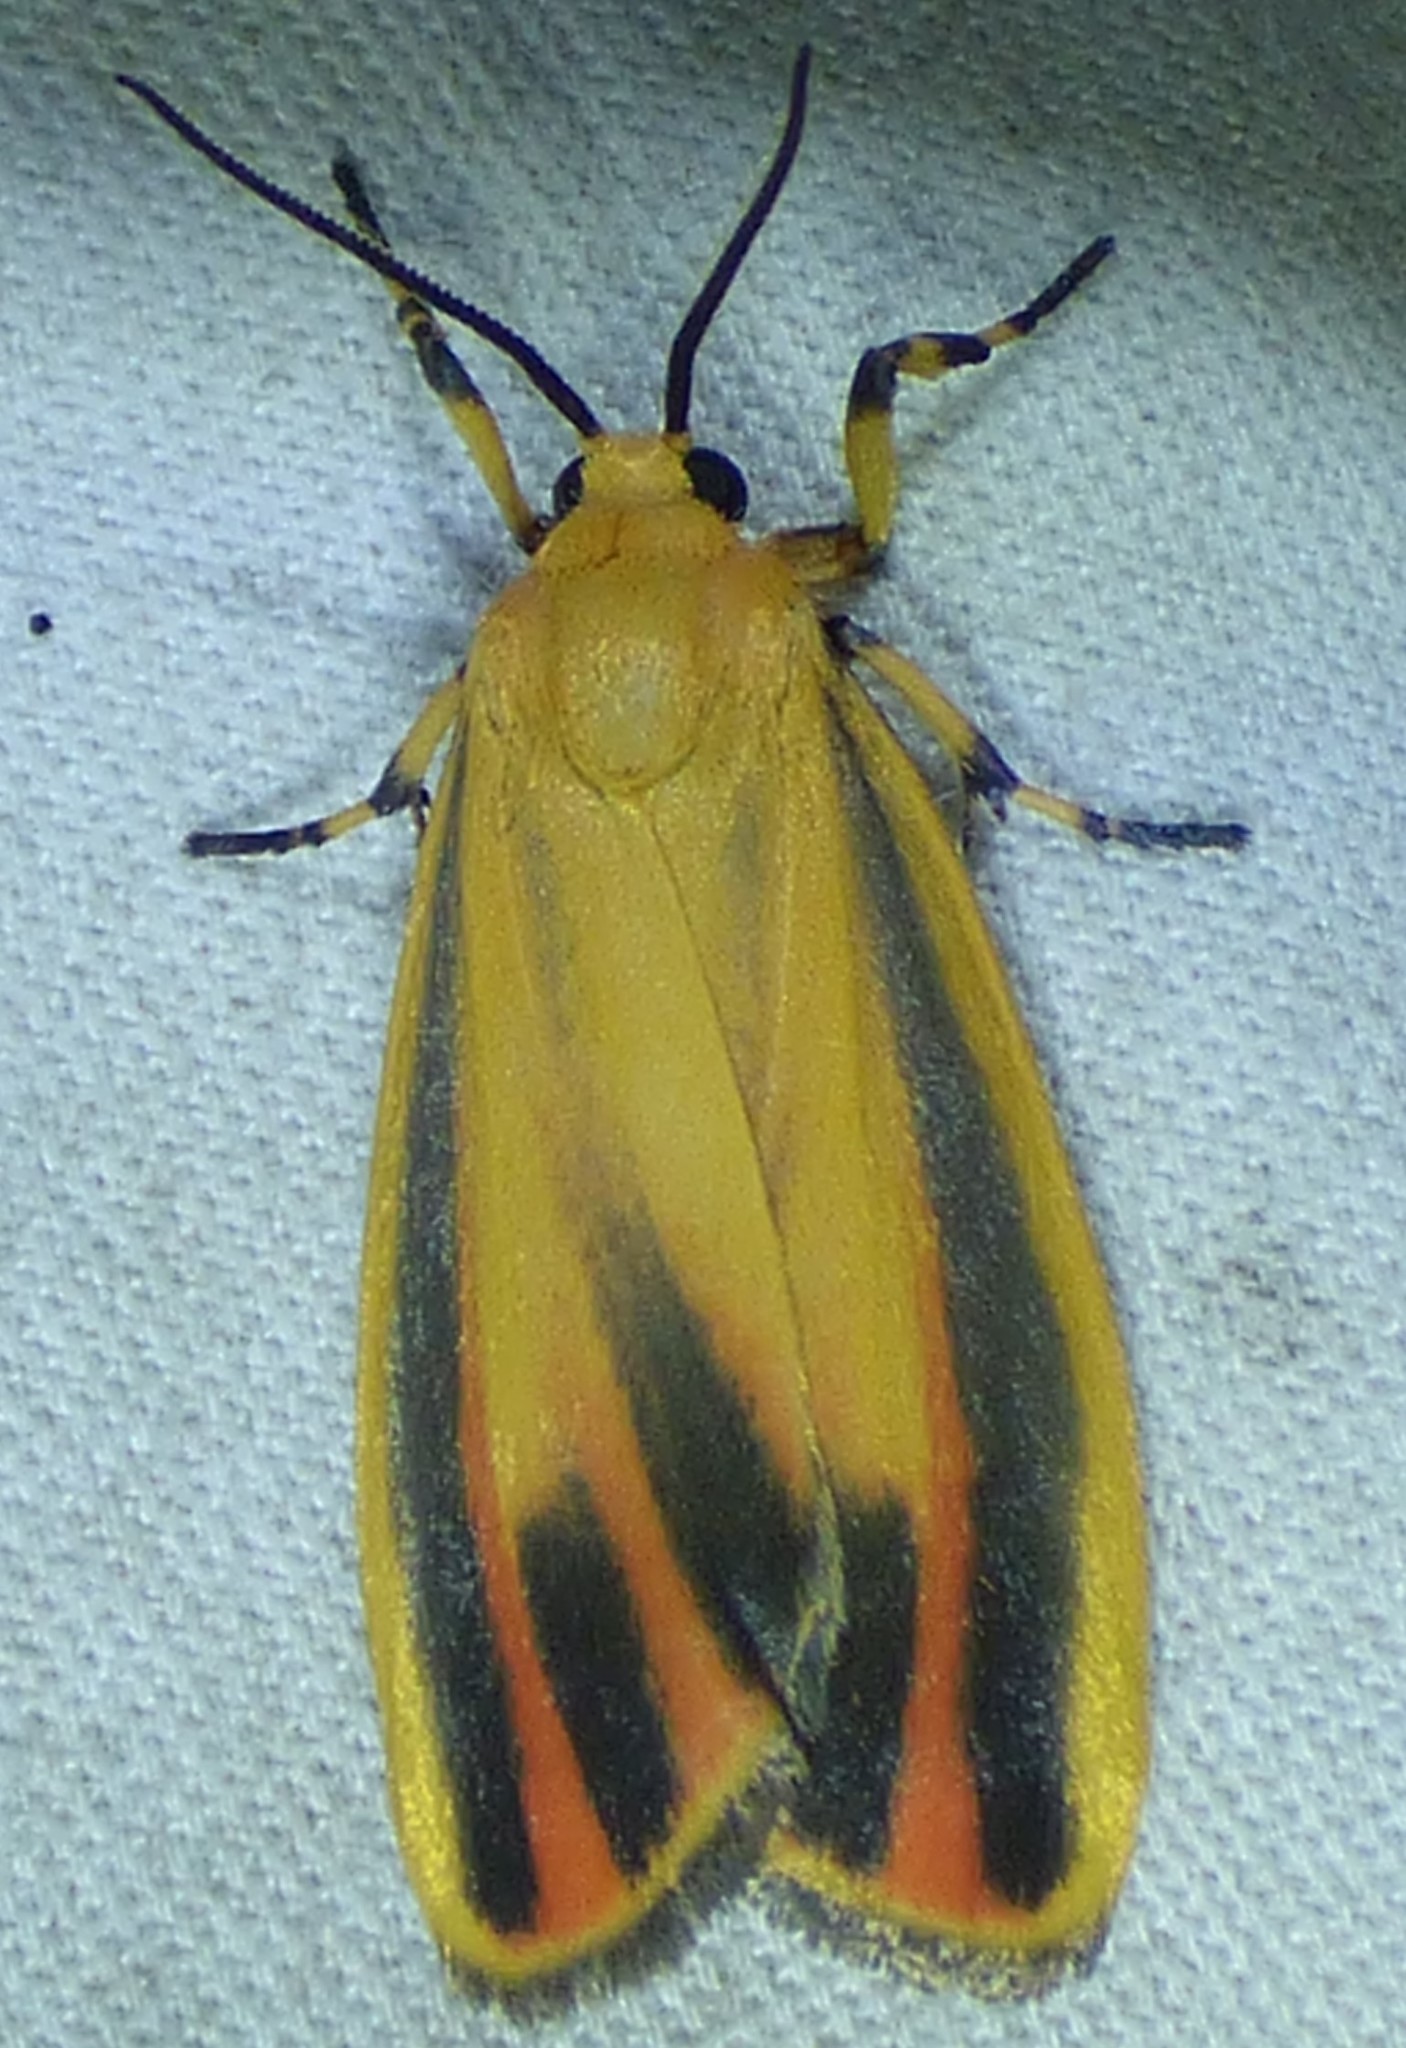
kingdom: Animalia
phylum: Arthropoda
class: Insecta
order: Lepidoptera
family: Erebidae
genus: Hypoprepia
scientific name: Hypoprepia fucosa
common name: Painted lichen moth
